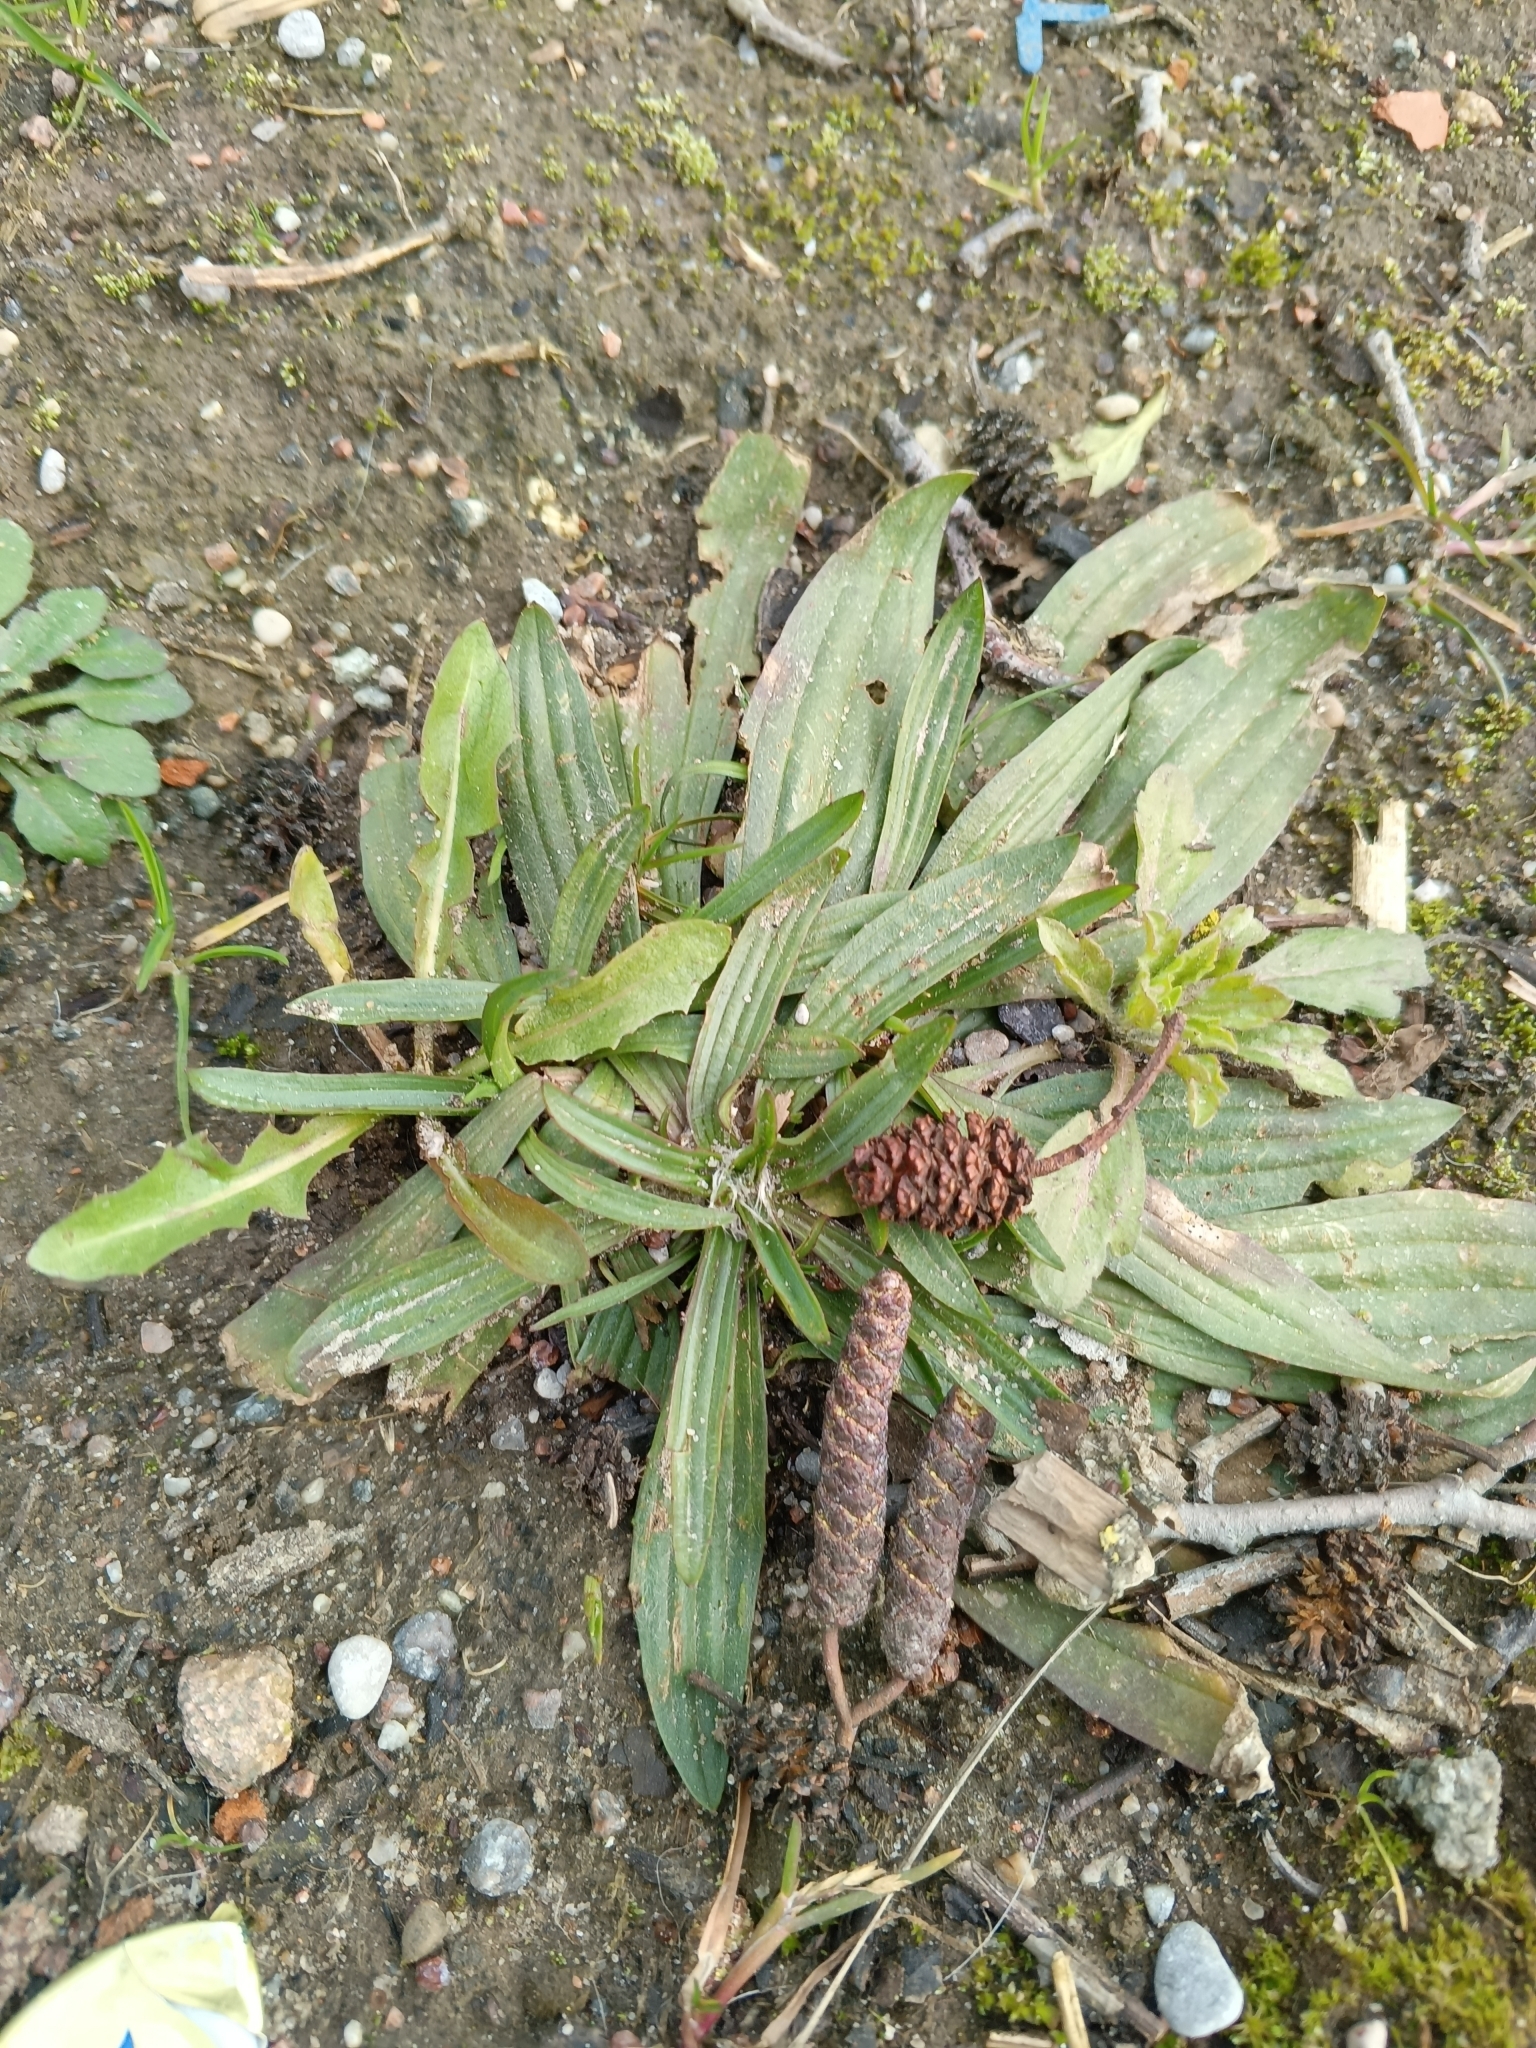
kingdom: Plantae
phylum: Tracheophyta
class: Magnoliopsida
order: Lamiales
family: Plantaginaceae
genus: Plantago
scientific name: Plantago lanceolata
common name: Ribwort plantain
